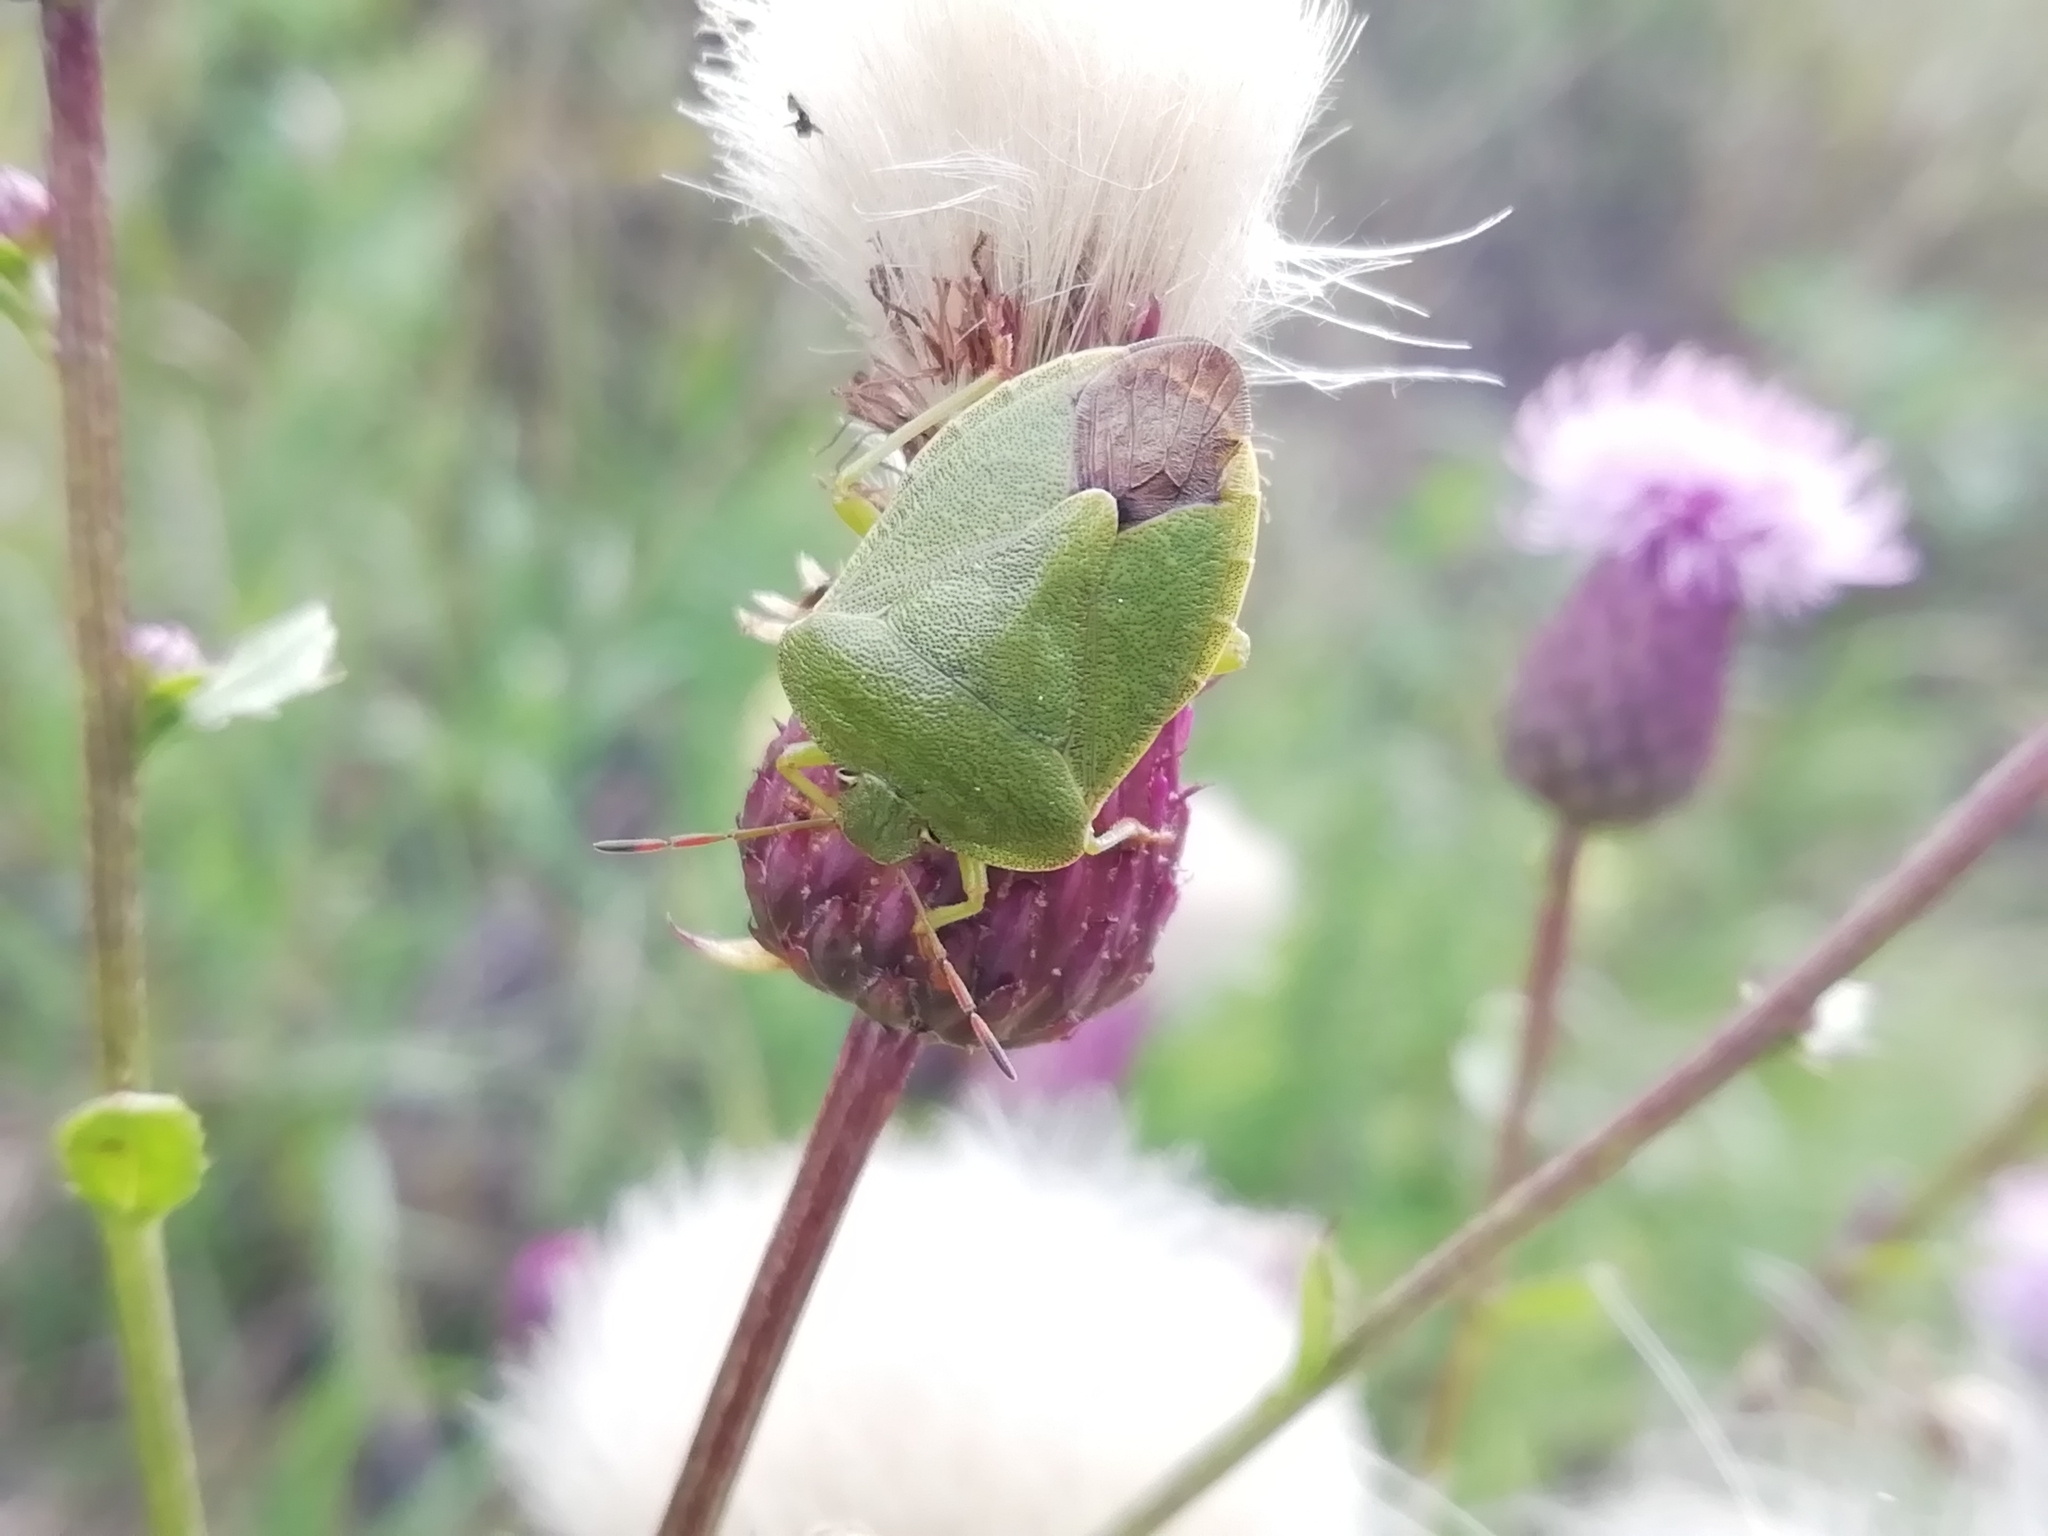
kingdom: Animalia
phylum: Arthropoda
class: Insecta
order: Hemiptera
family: Pentatomidae
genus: Palomena
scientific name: Palomena prasina
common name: Green shieldbug
